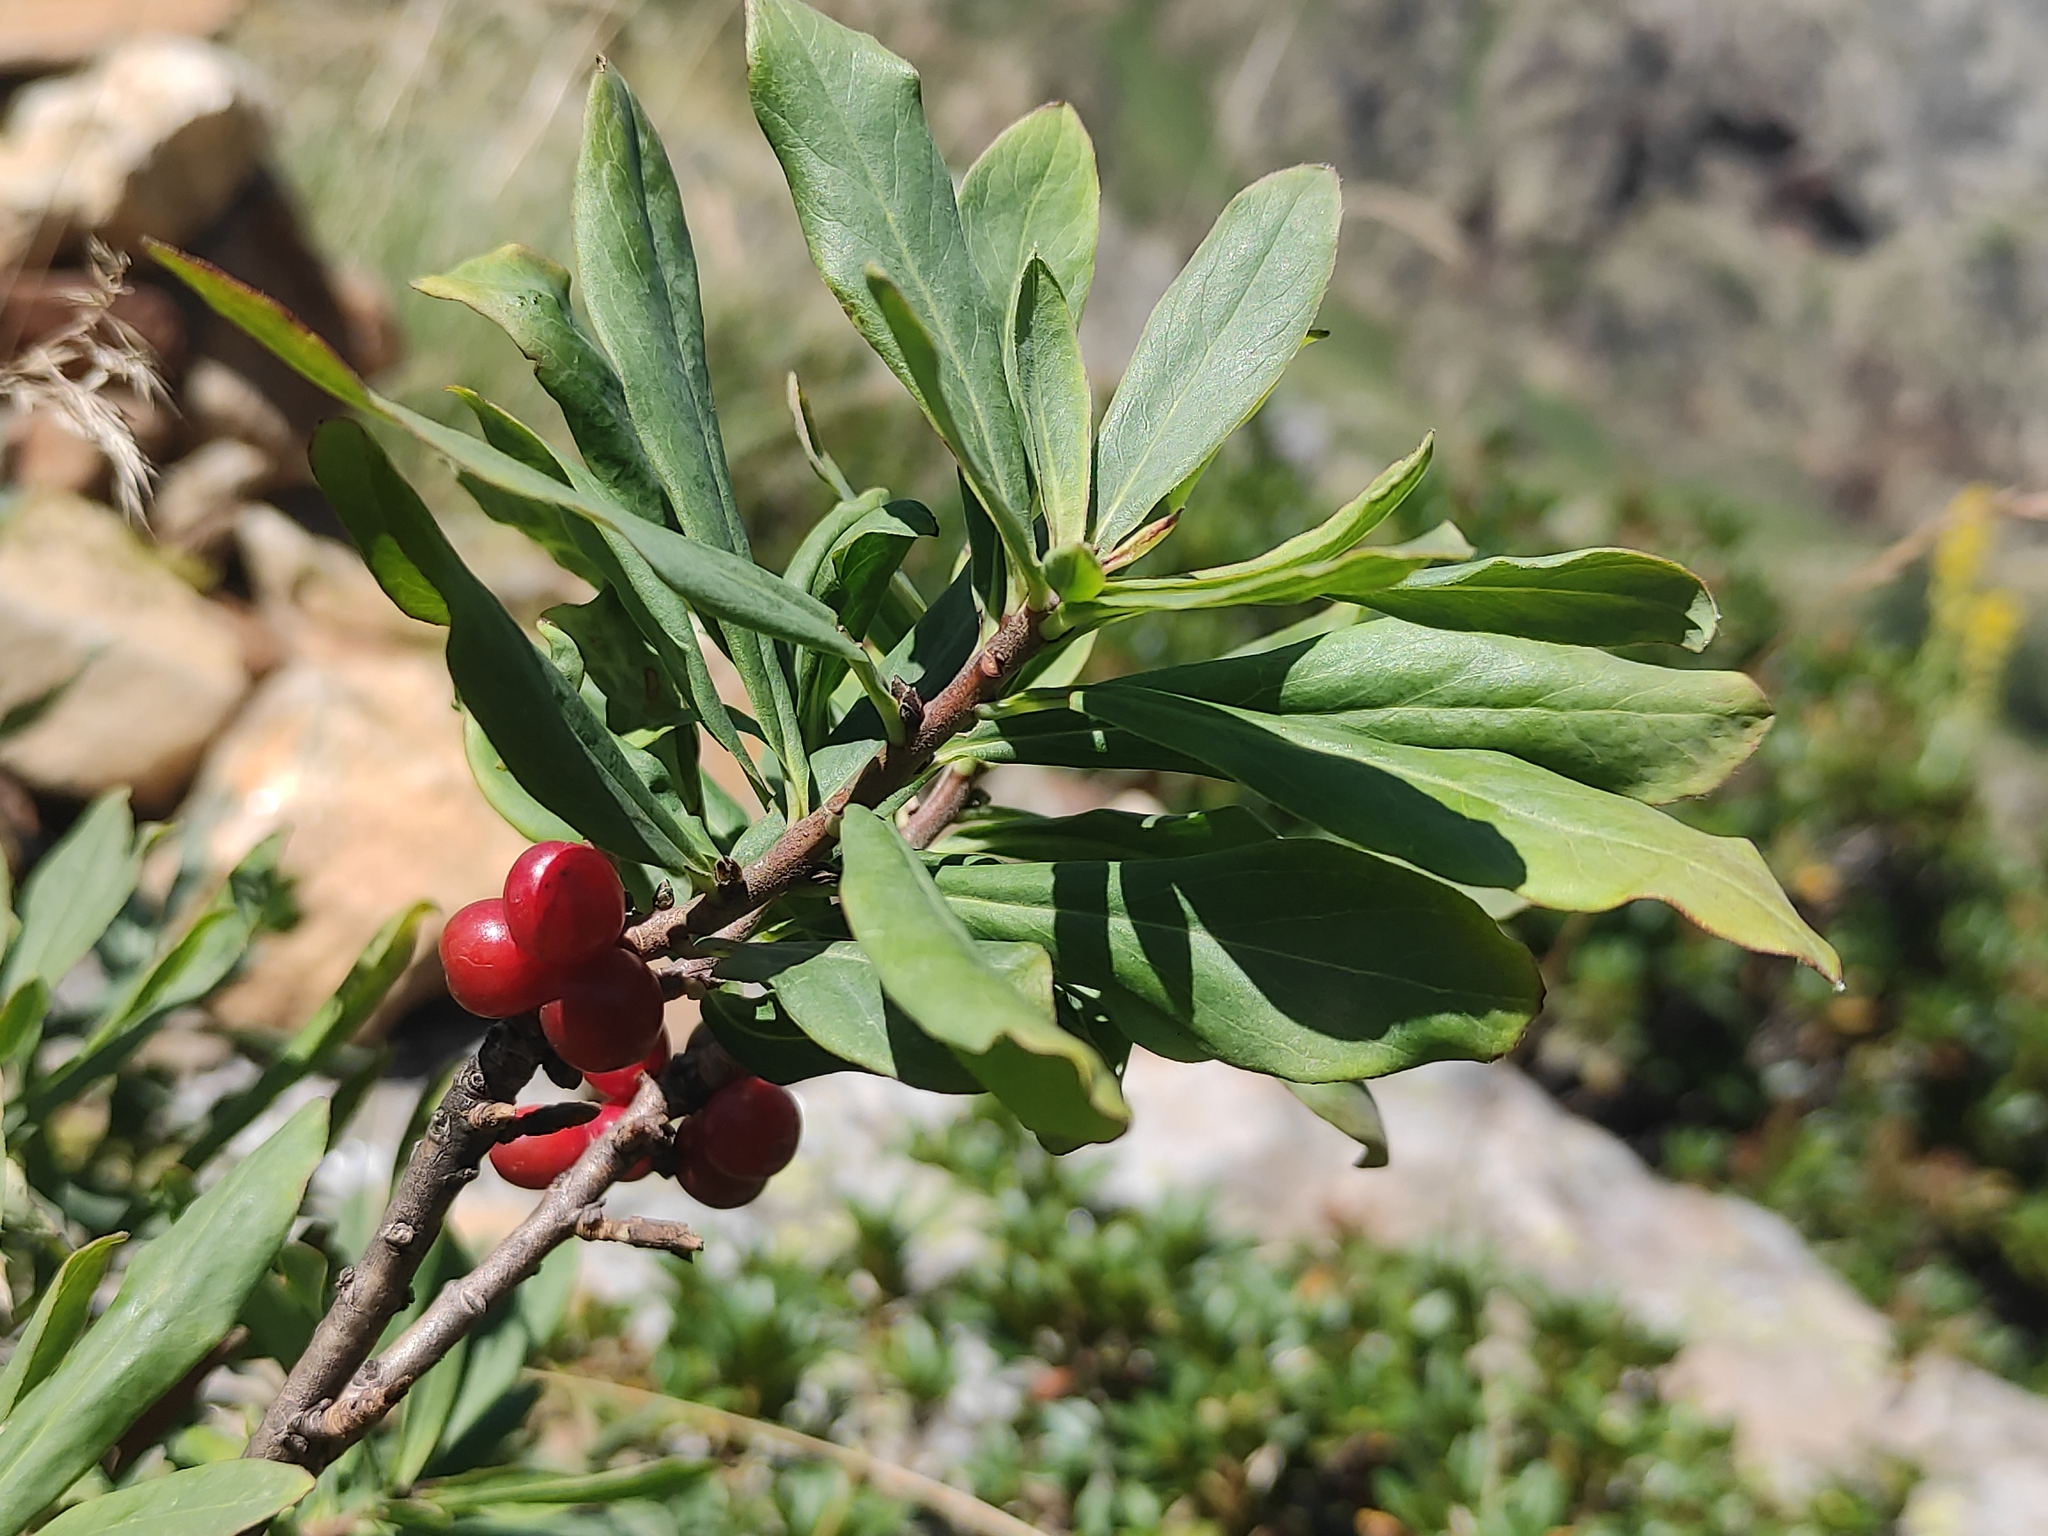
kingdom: Plantae
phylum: Tracheophyta
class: Magnoliopsida
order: Malvales
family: Thymelaeaceae
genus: Daphne
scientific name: Daphne mezereum
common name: Mezereon
